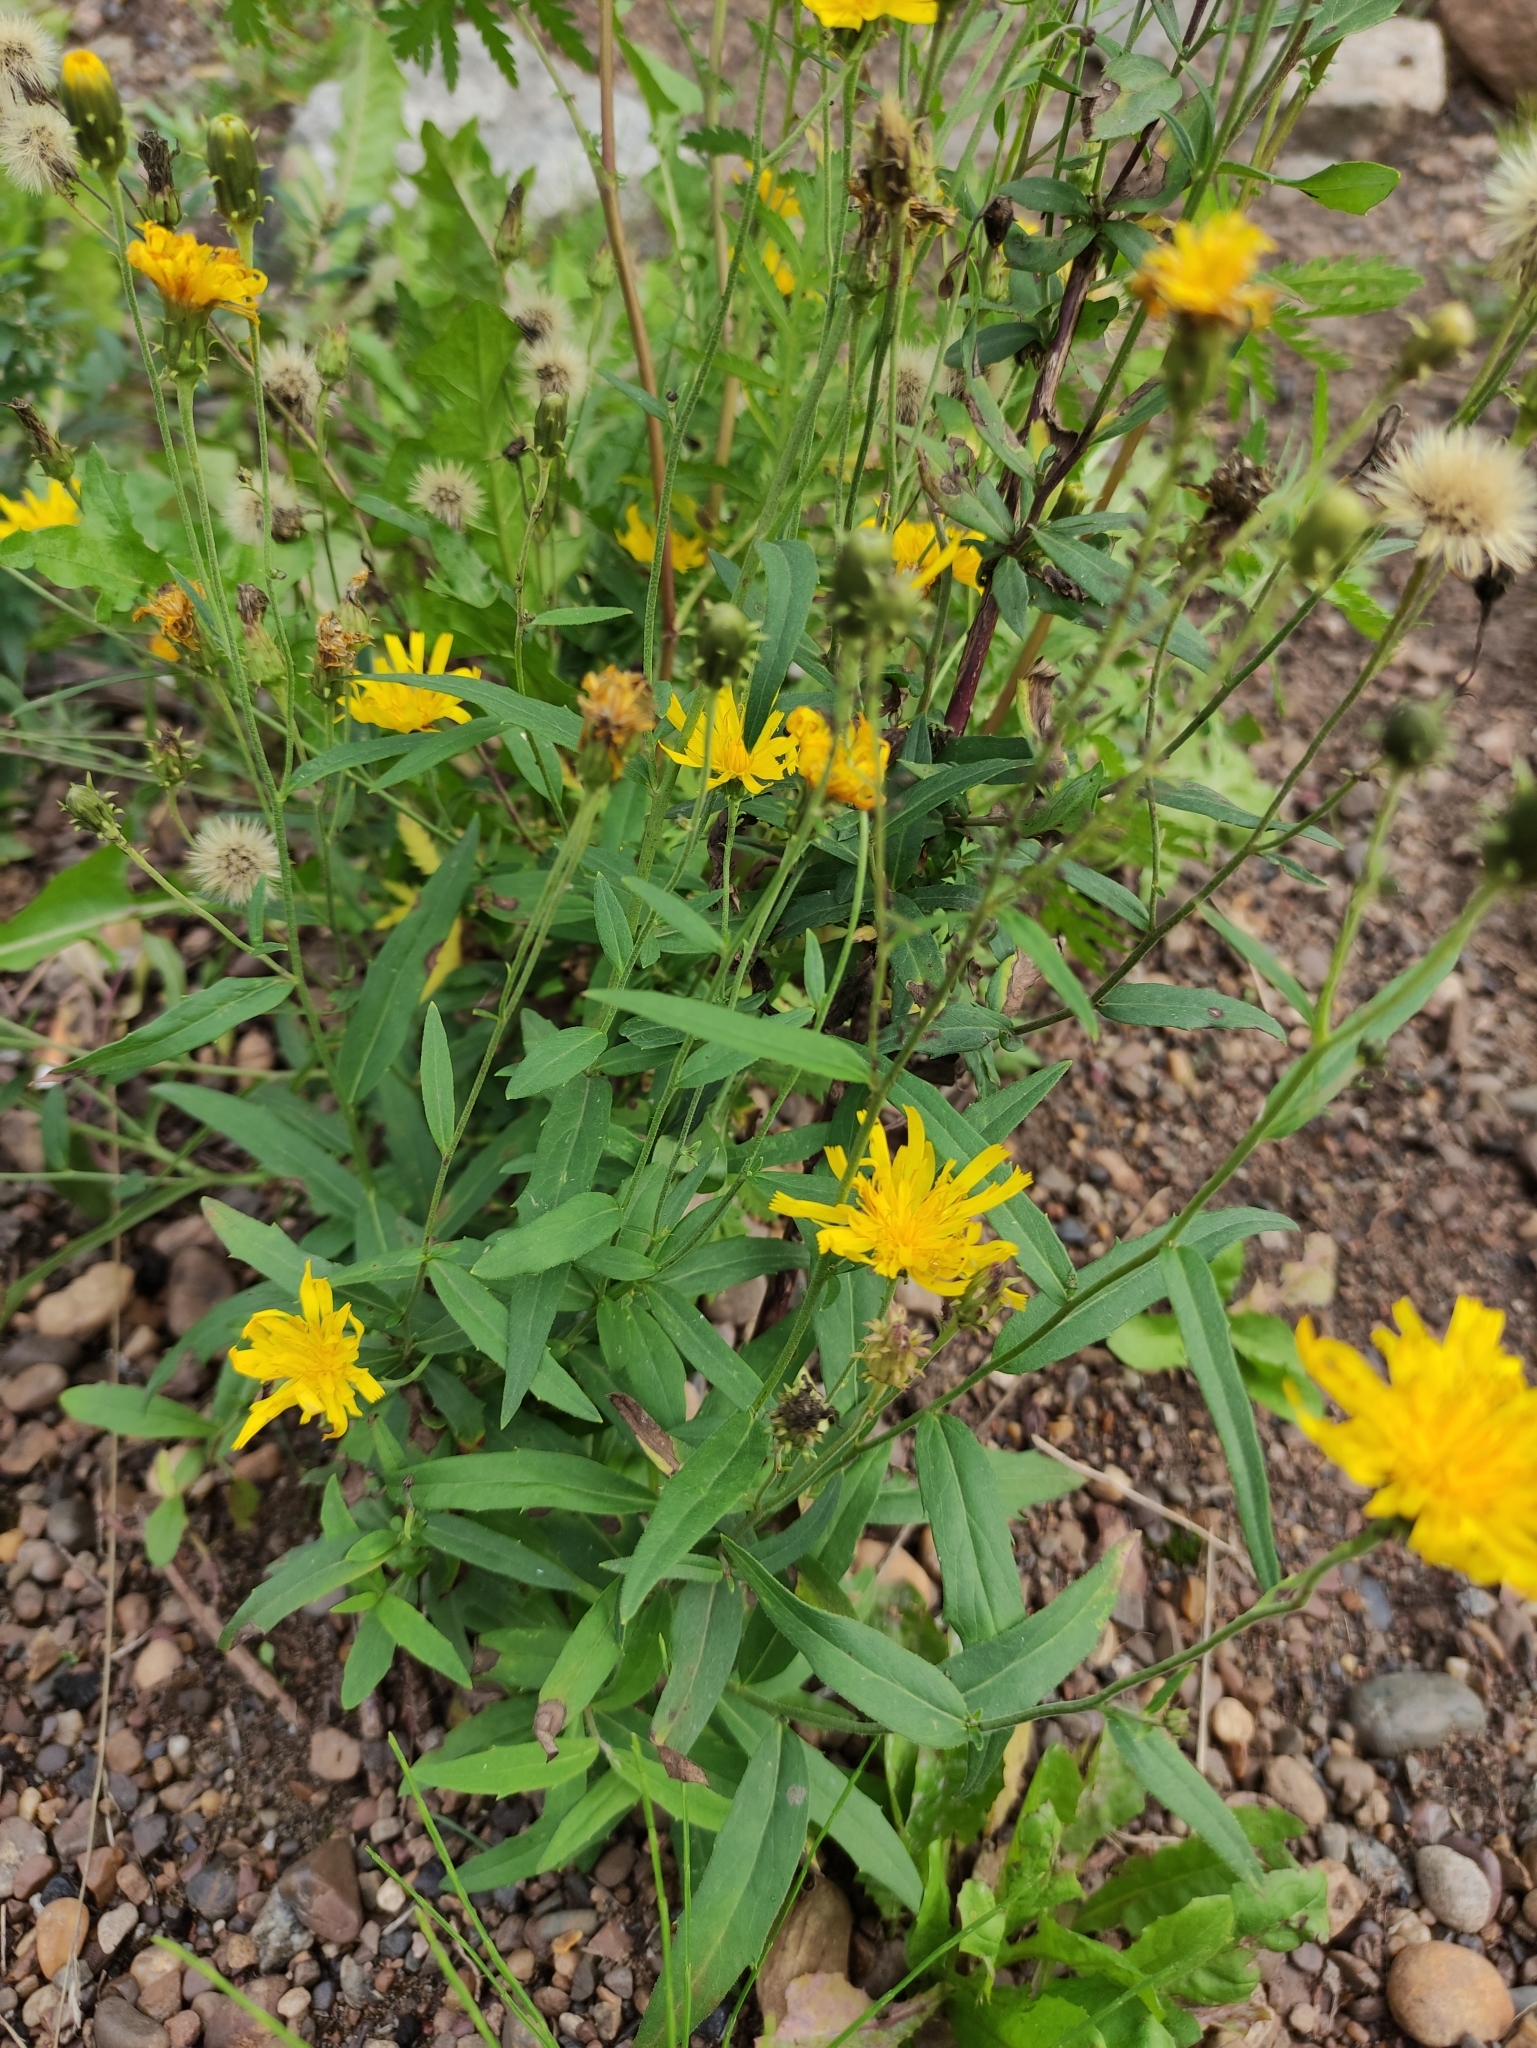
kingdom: Plantae
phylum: Tracheophyta
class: Magnoliopsida
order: Asterales
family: Asteraceae
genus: Hieracium
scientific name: Hieracium umbellatum
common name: Northern hawkweed
